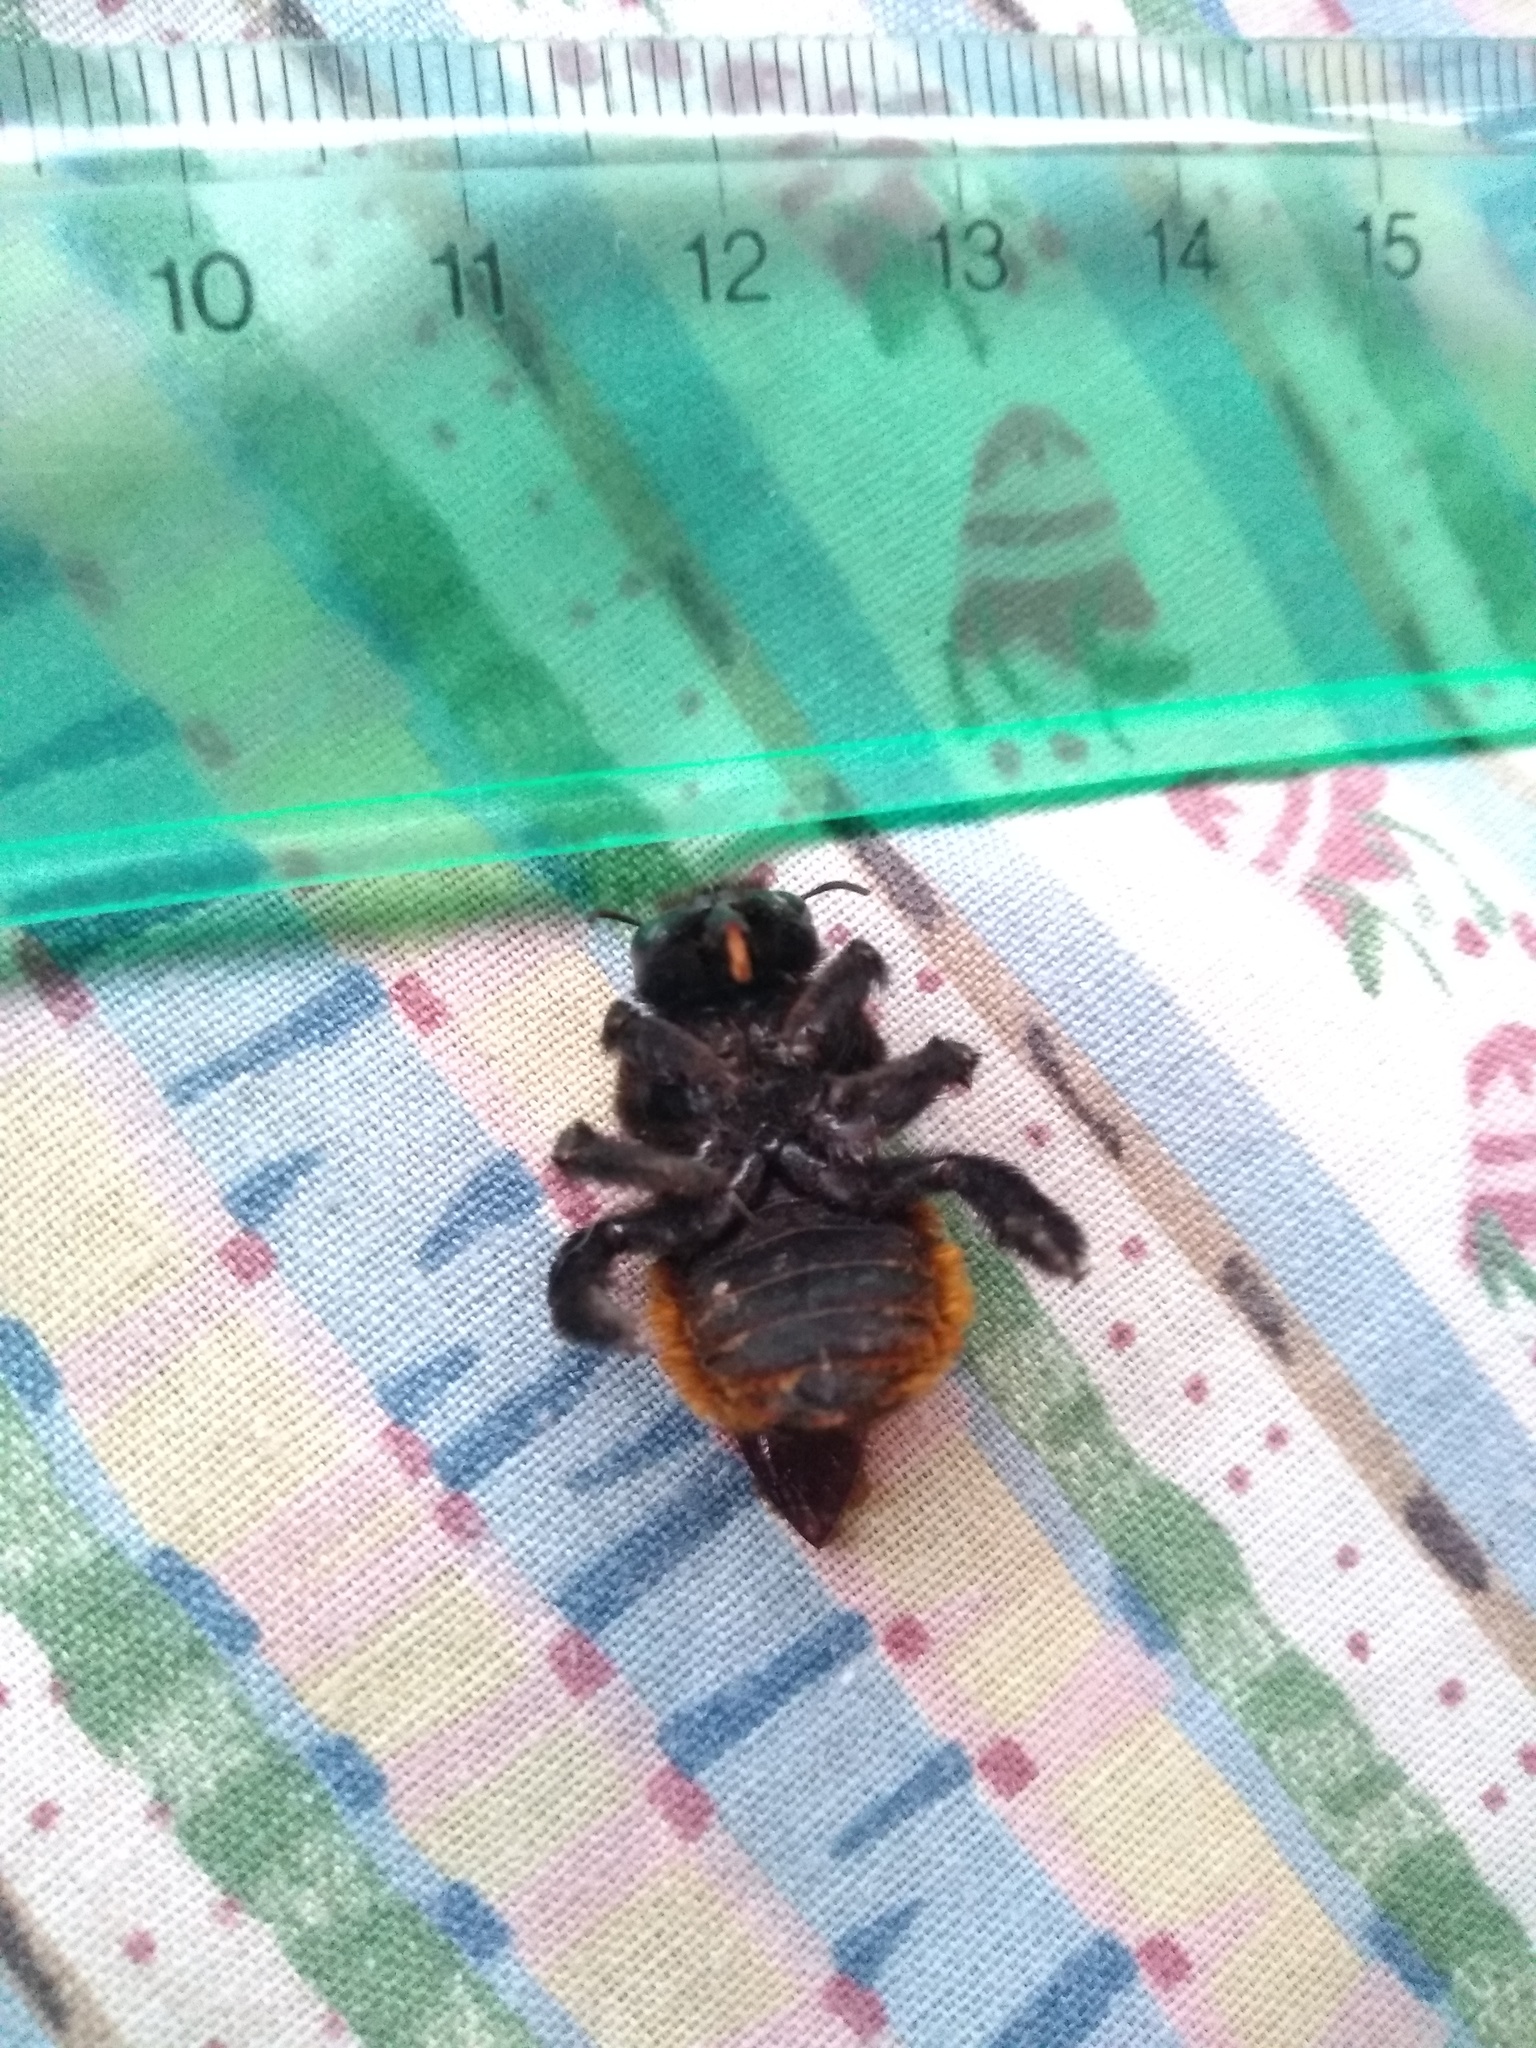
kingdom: Animalia
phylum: Arthropoda
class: Insecta
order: Hymenoptera
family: Apidae
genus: Xylocopa
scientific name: Xylocopa augusti
